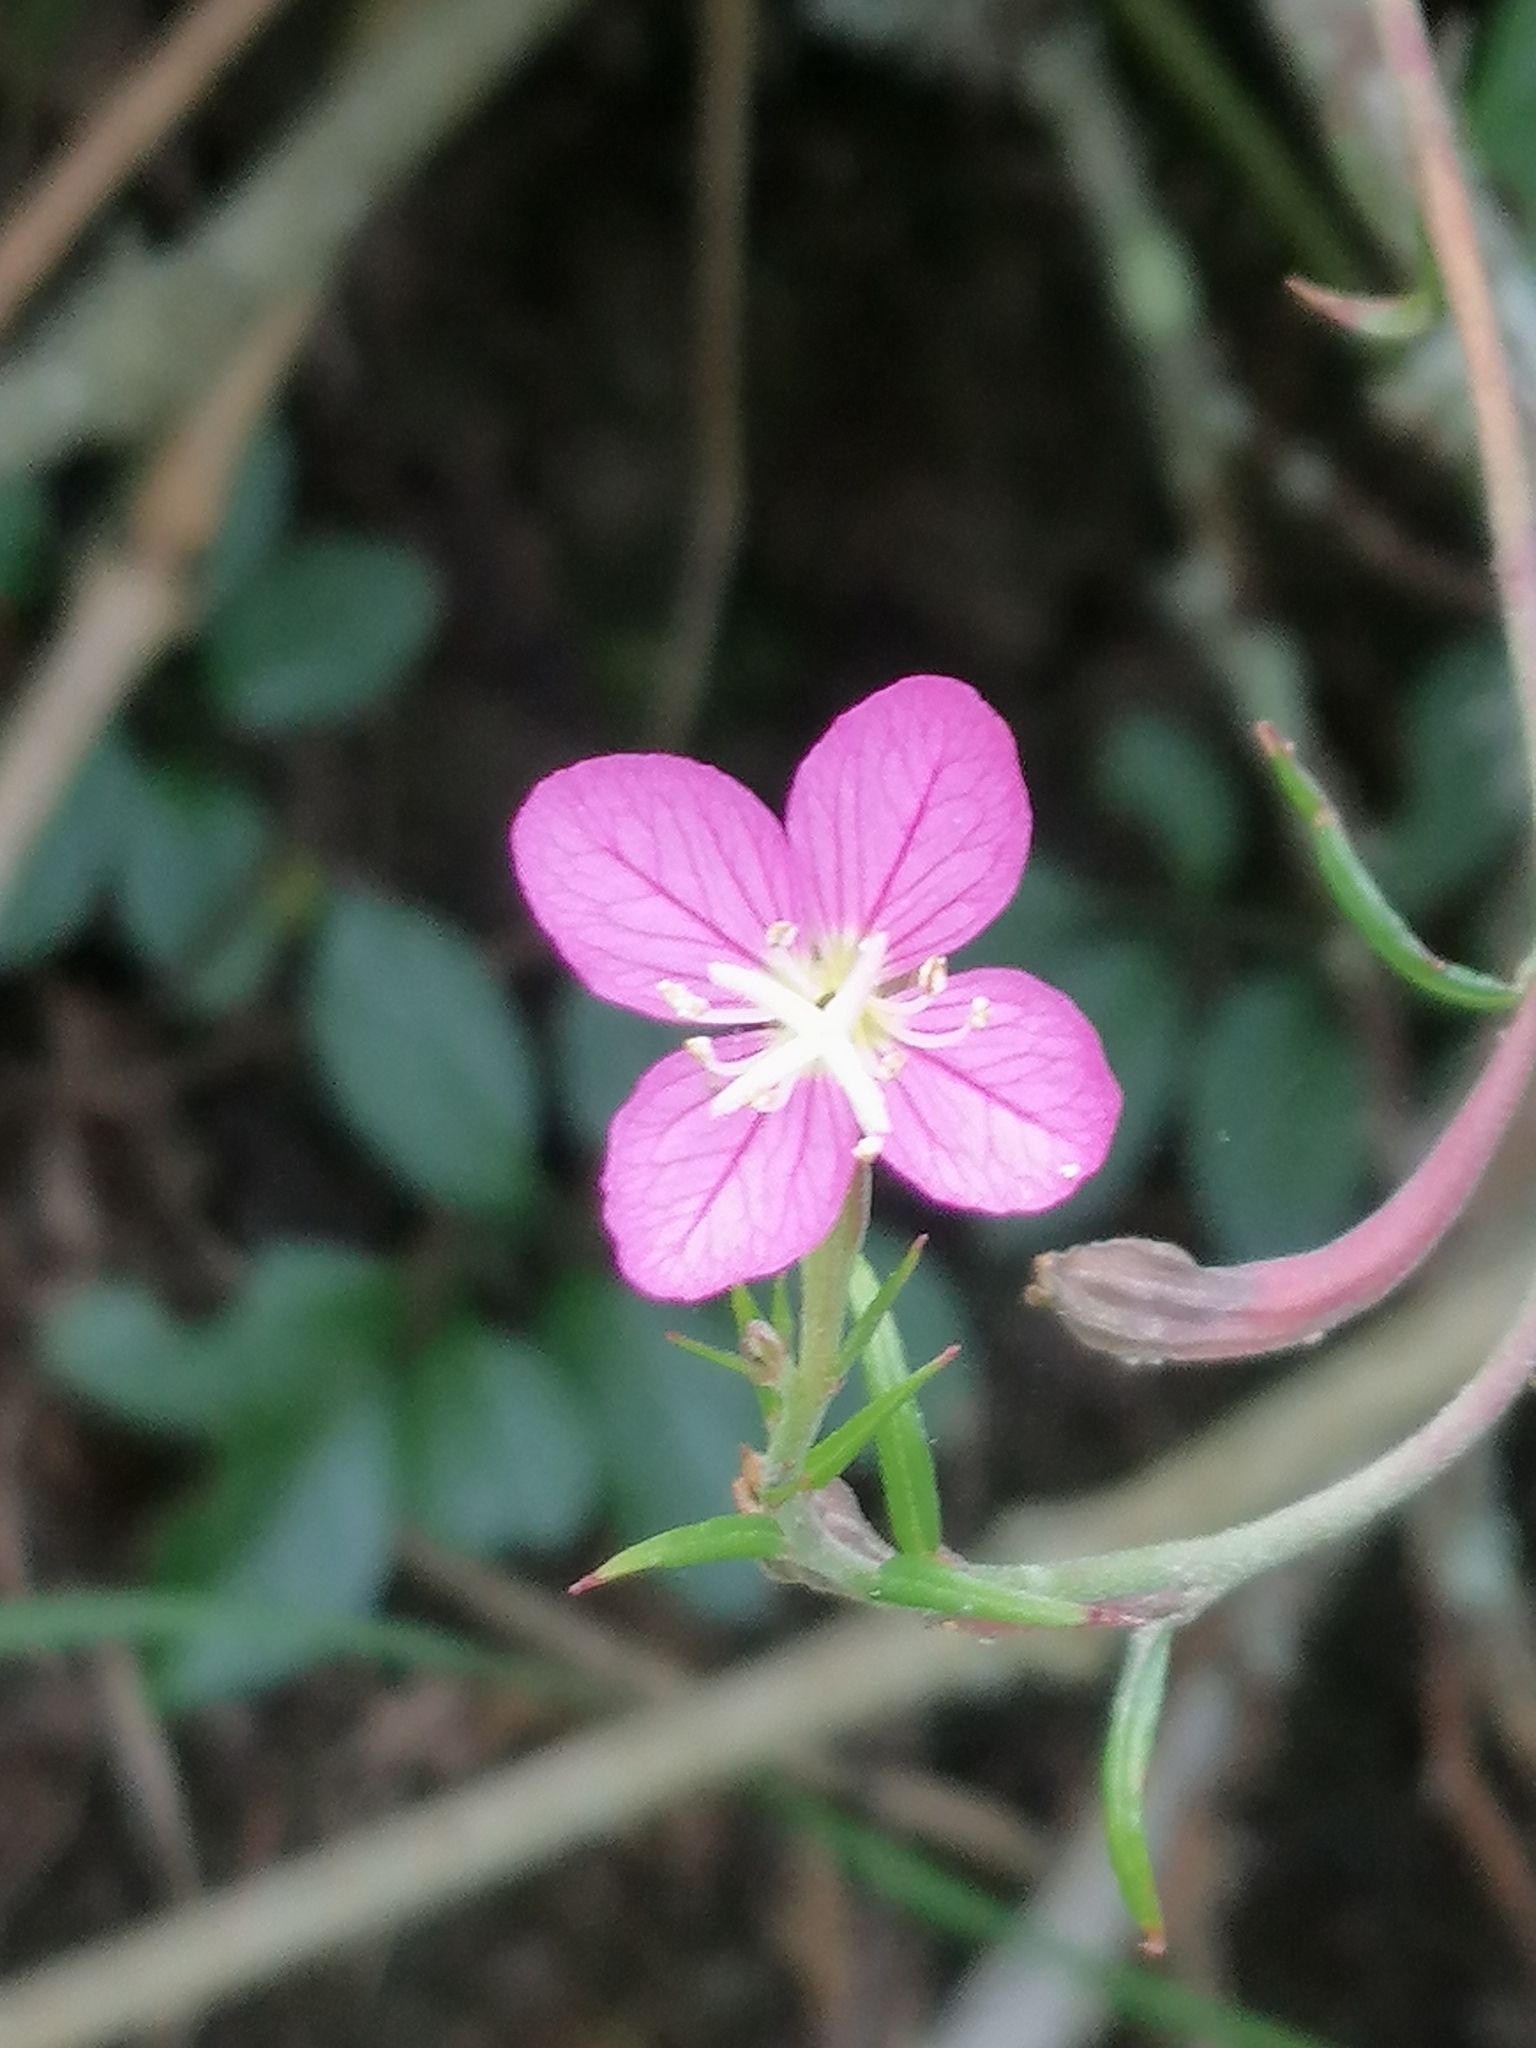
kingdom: Plantae
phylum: Tracheophyta
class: Magnoliopsida
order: Myrtales
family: Onagraceae
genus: Oenothera
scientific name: Oenothera rosea
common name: Rosy evening-primrose
